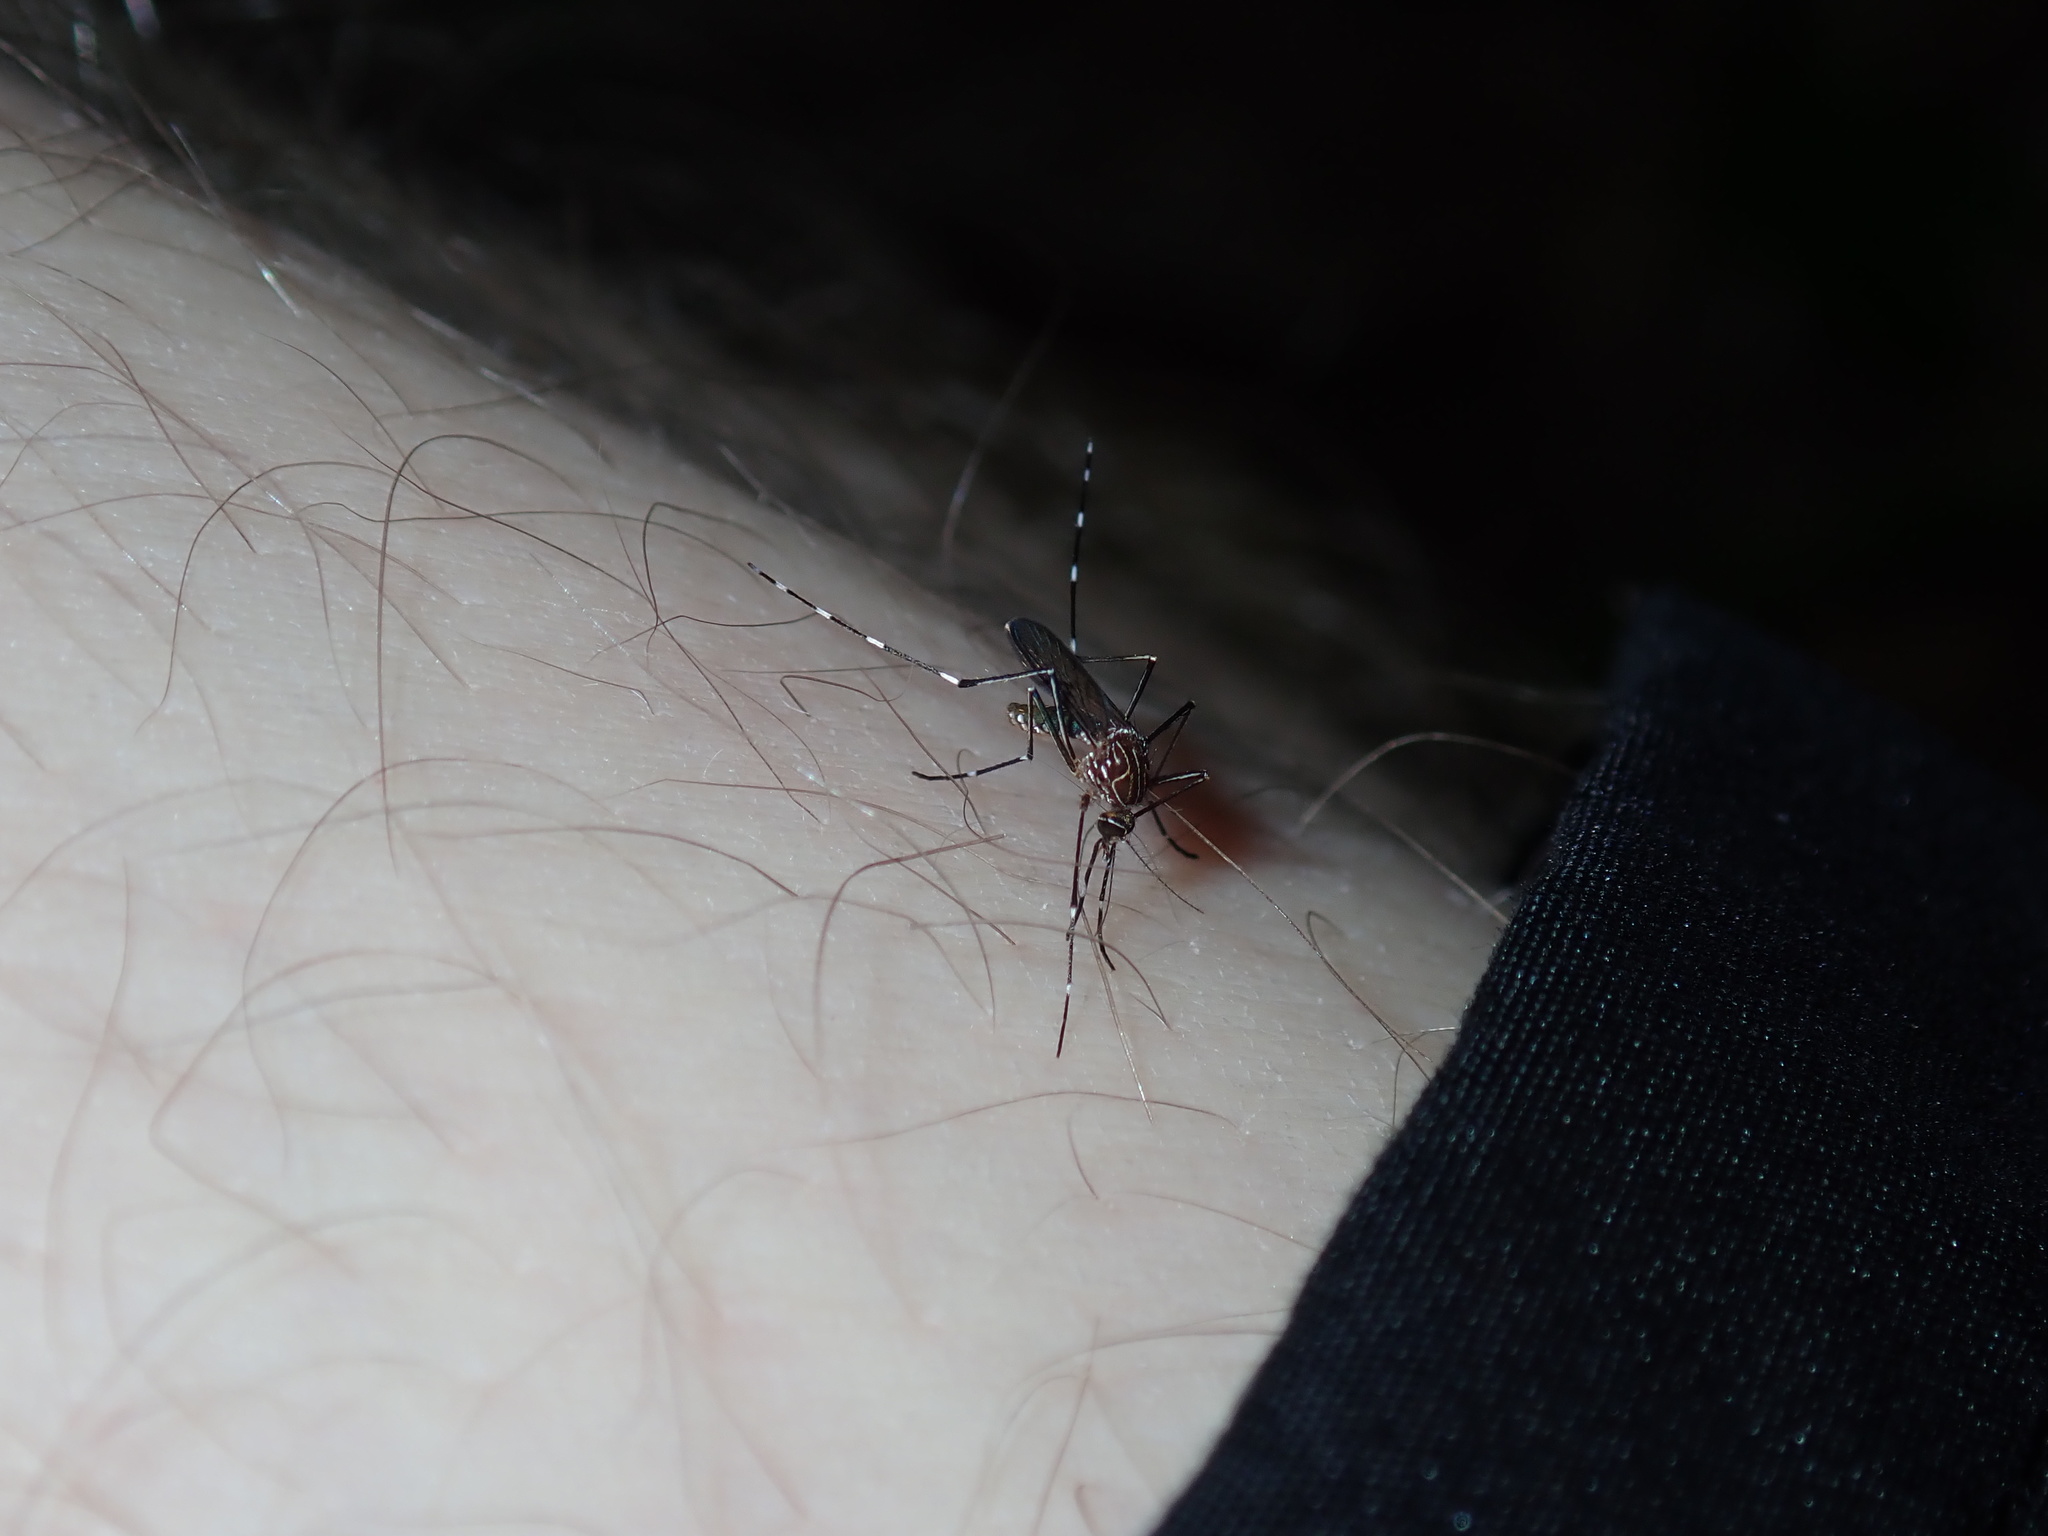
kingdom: Animalia
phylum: Arthropoda
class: Insecta
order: Diptera
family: Culicidae
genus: Aedes
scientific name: Aedes notoscriptus
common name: Australian backyard mosquito
